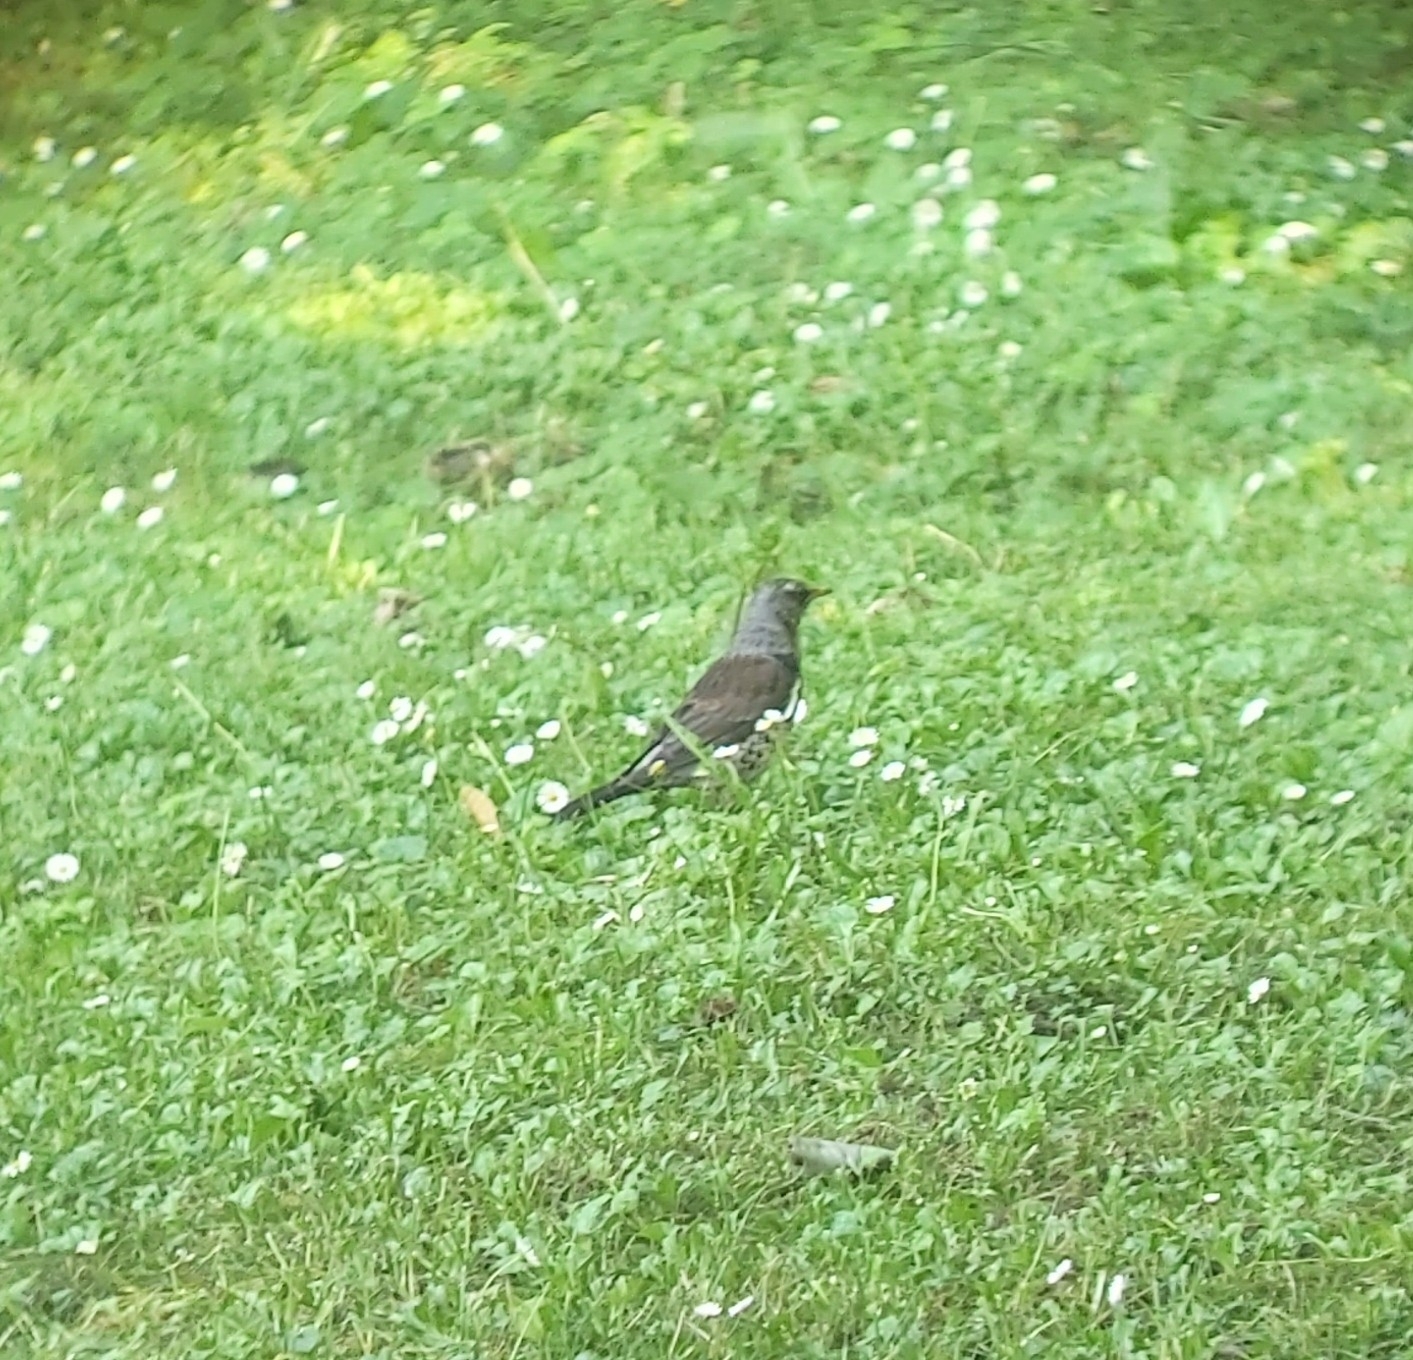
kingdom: Animalia
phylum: Chordata
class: Aves
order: Passeriformes
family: Turdidae
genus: Turdus
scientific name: Turdus pilaris
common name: Fieldfare
